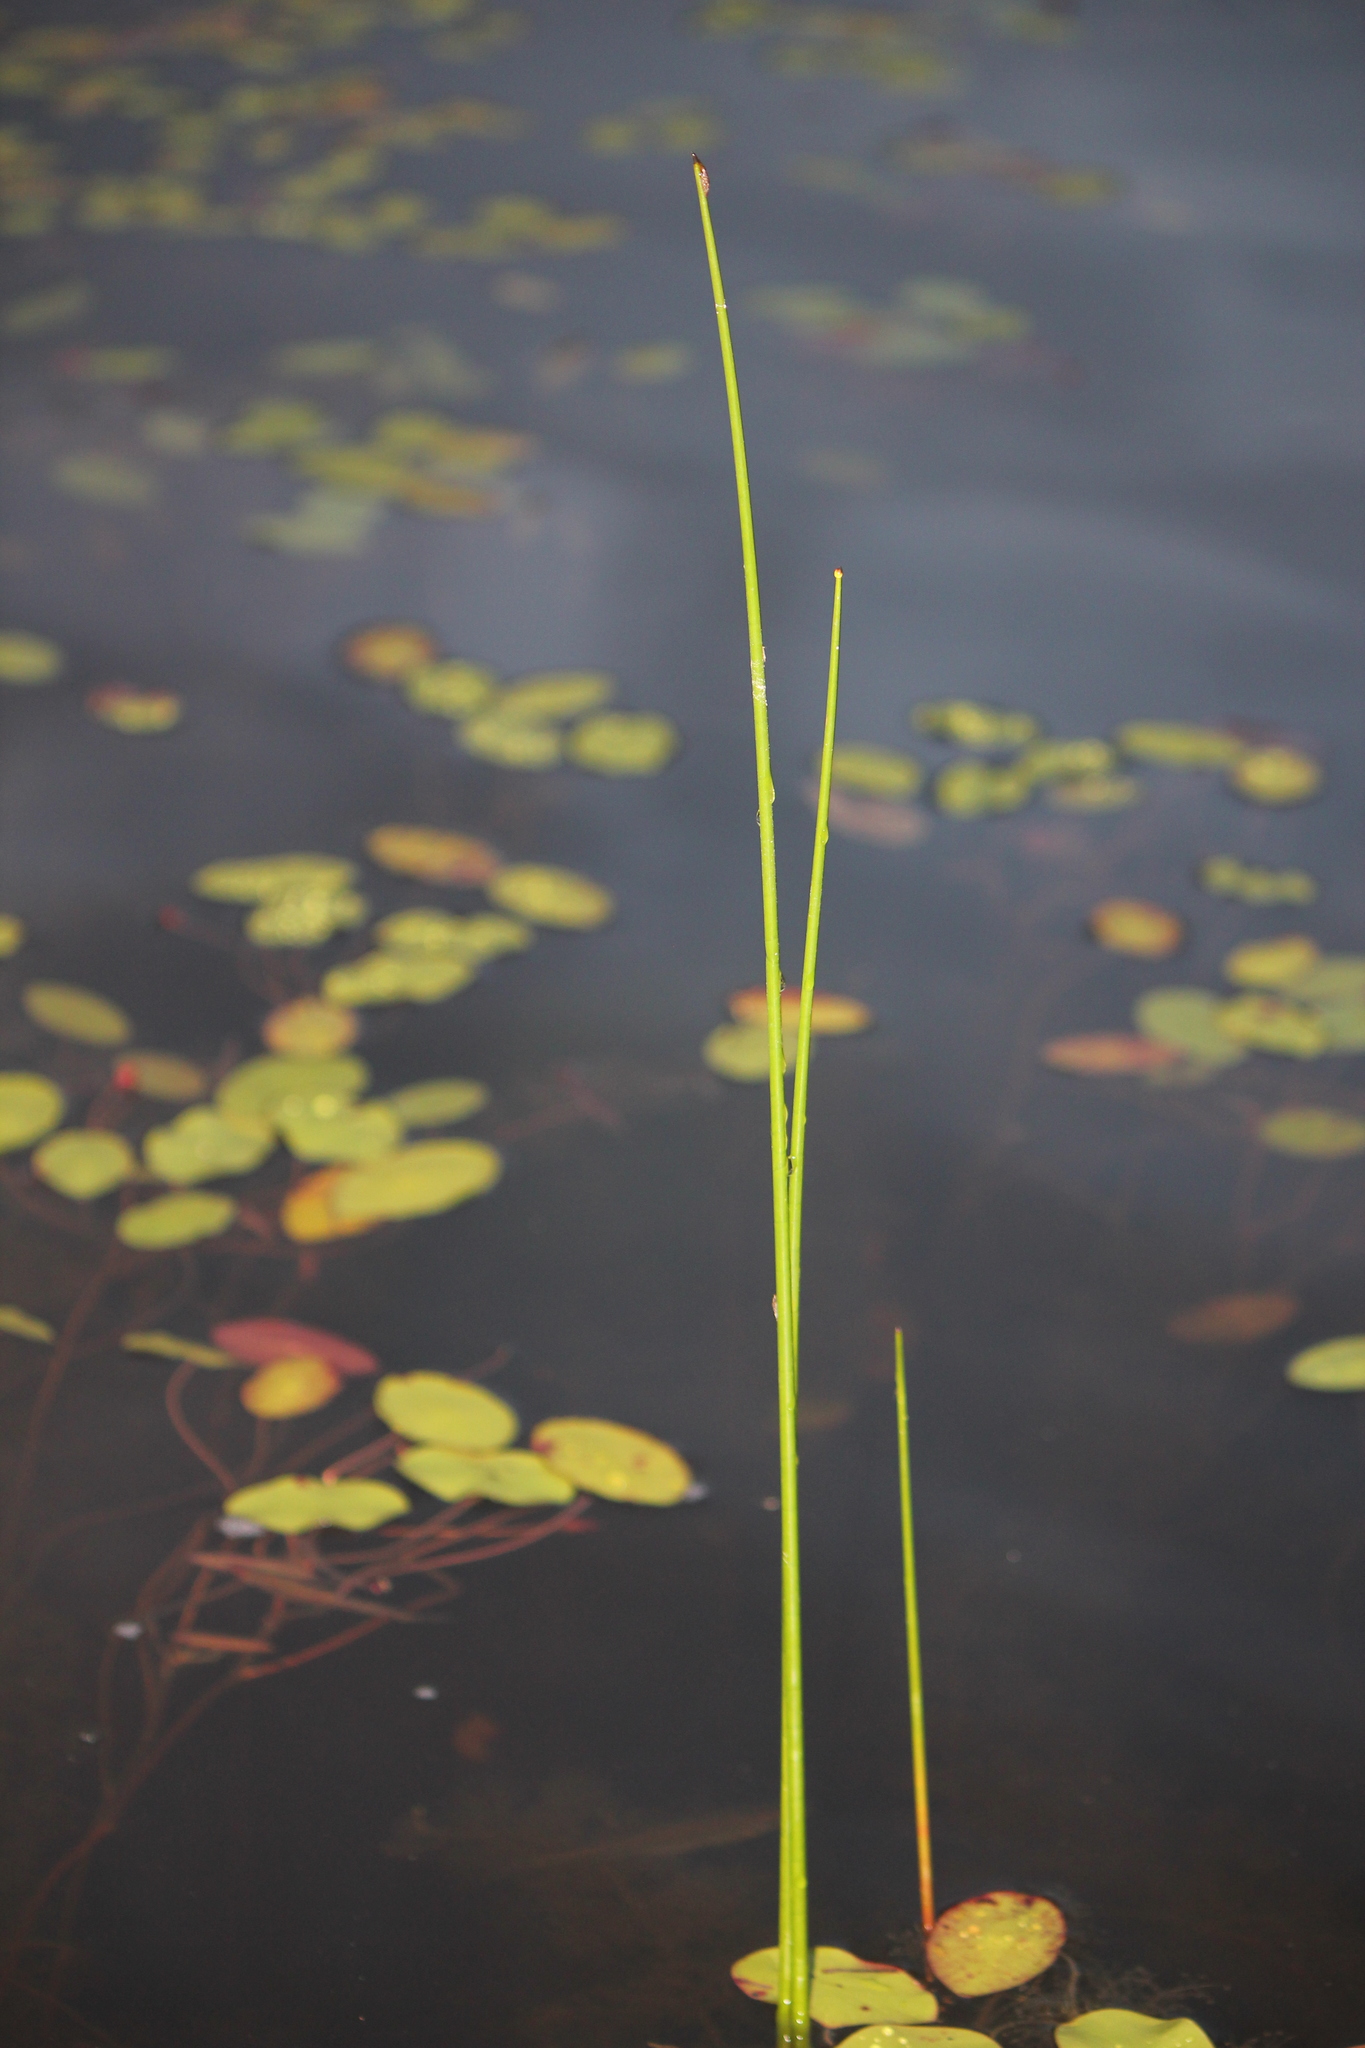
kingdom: Plantae
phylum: Tracheophyta
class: Liliopsida
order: Poales
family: Juncaceae
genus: Juncus
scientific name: Juncus militaris
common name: Bayonet rush
